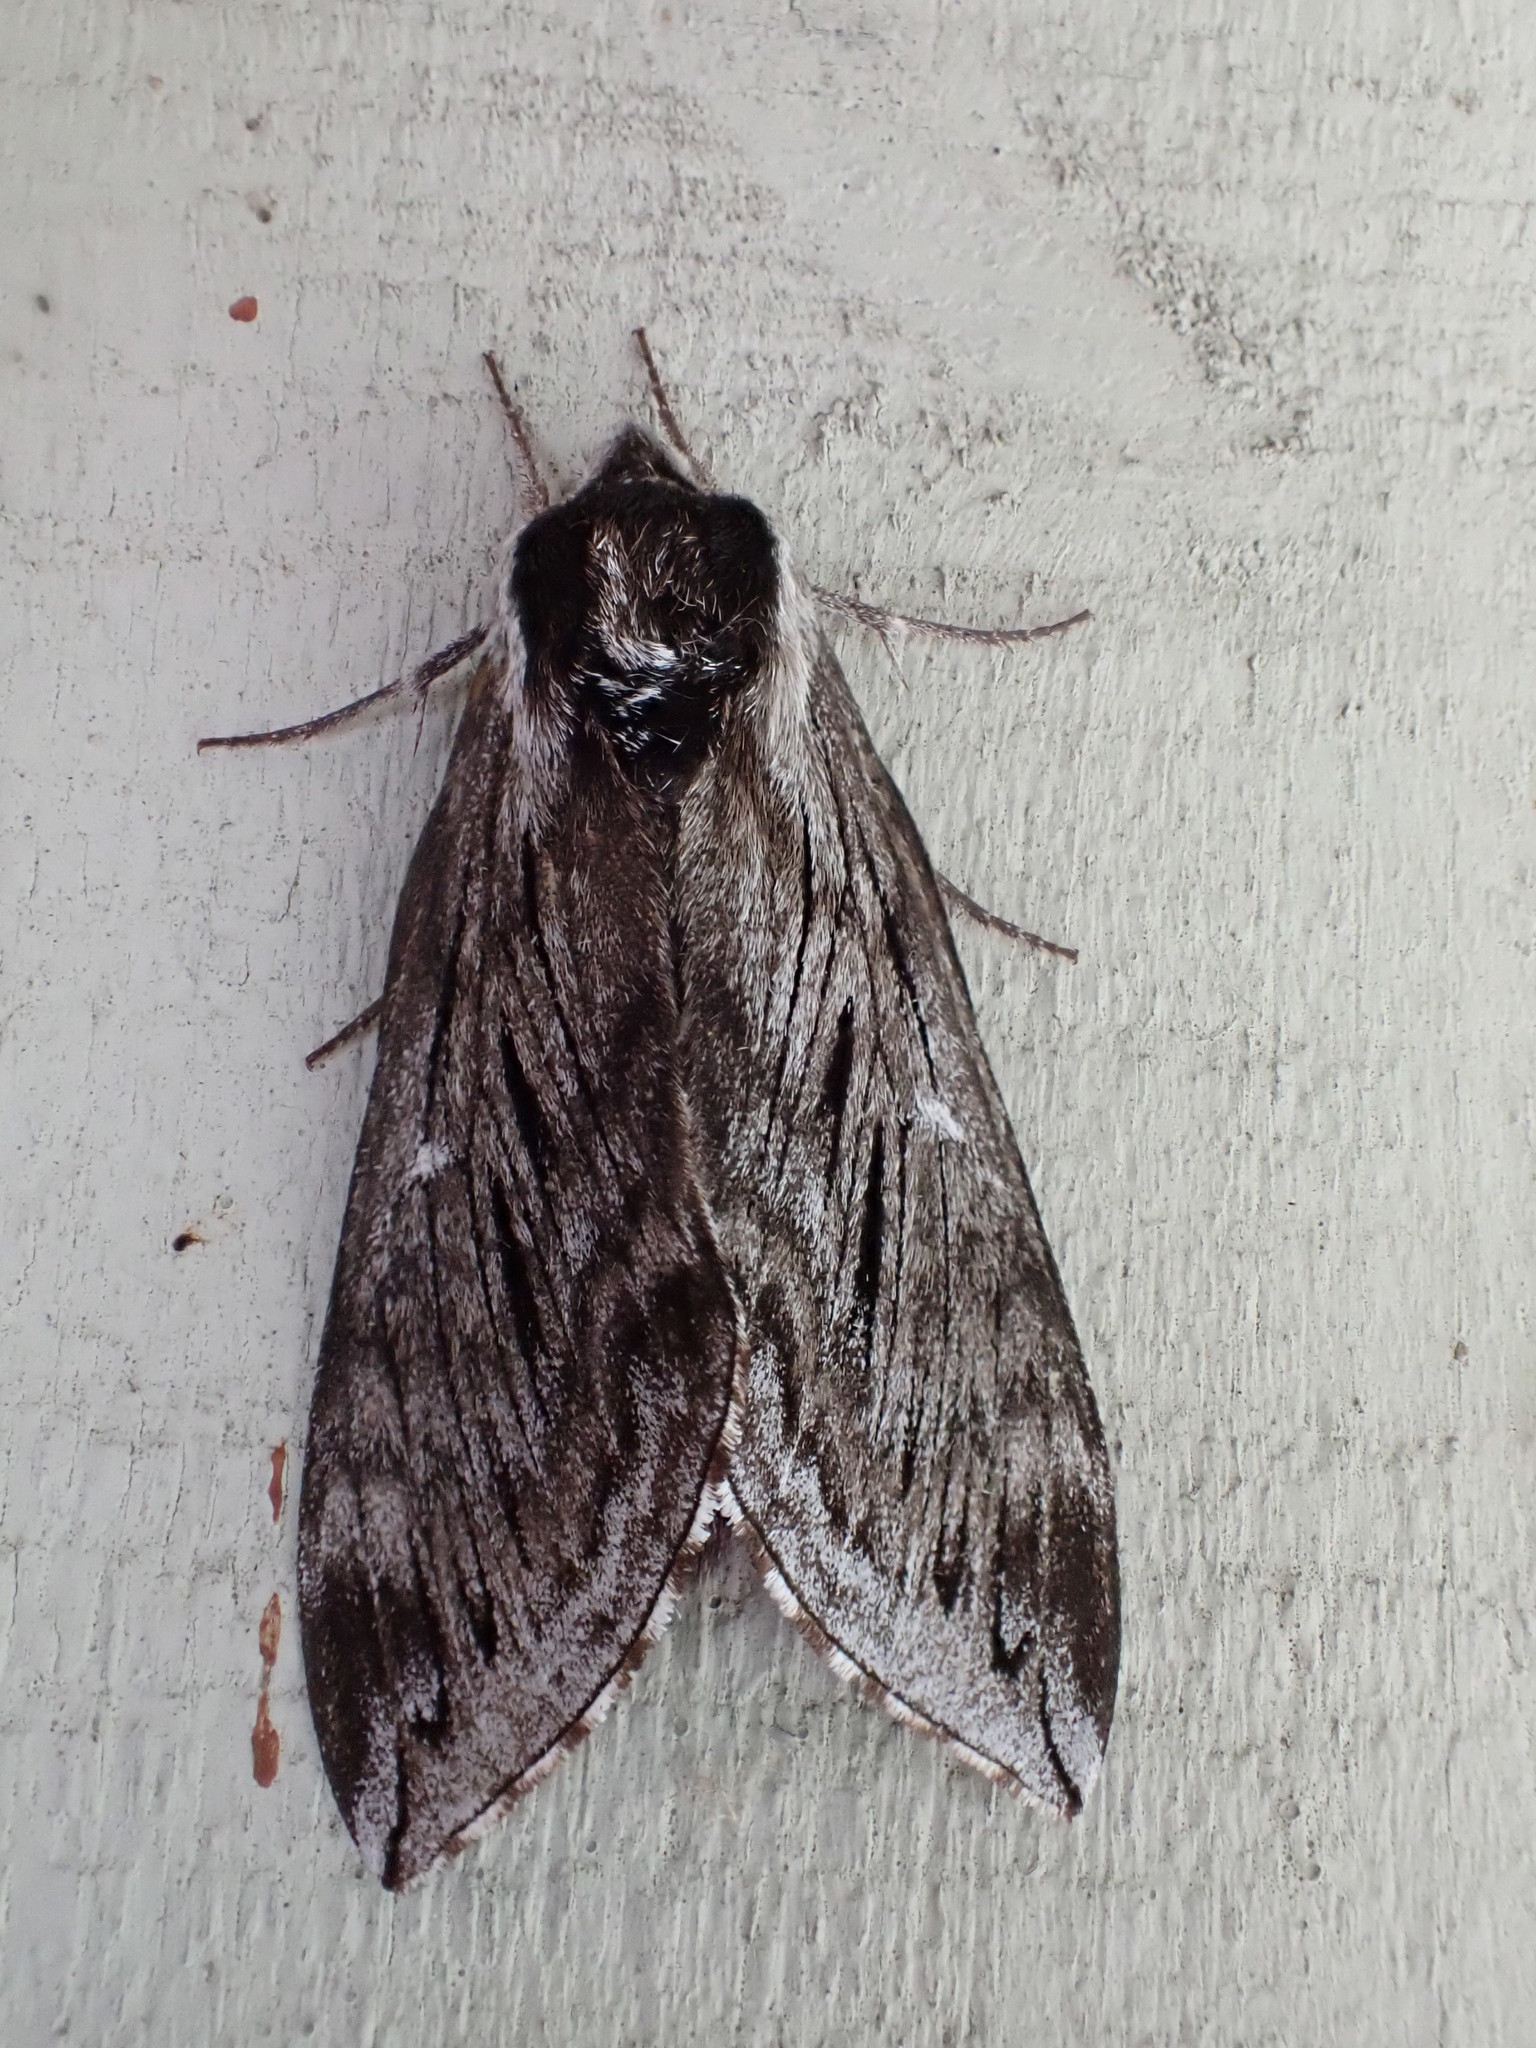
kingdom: Animalia
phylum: Arthropoda
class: Insecta
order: Lepidoptera
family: Sphingidae
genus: Sphinx
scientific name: Sphinx poecila
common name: Northern apple sphinx
